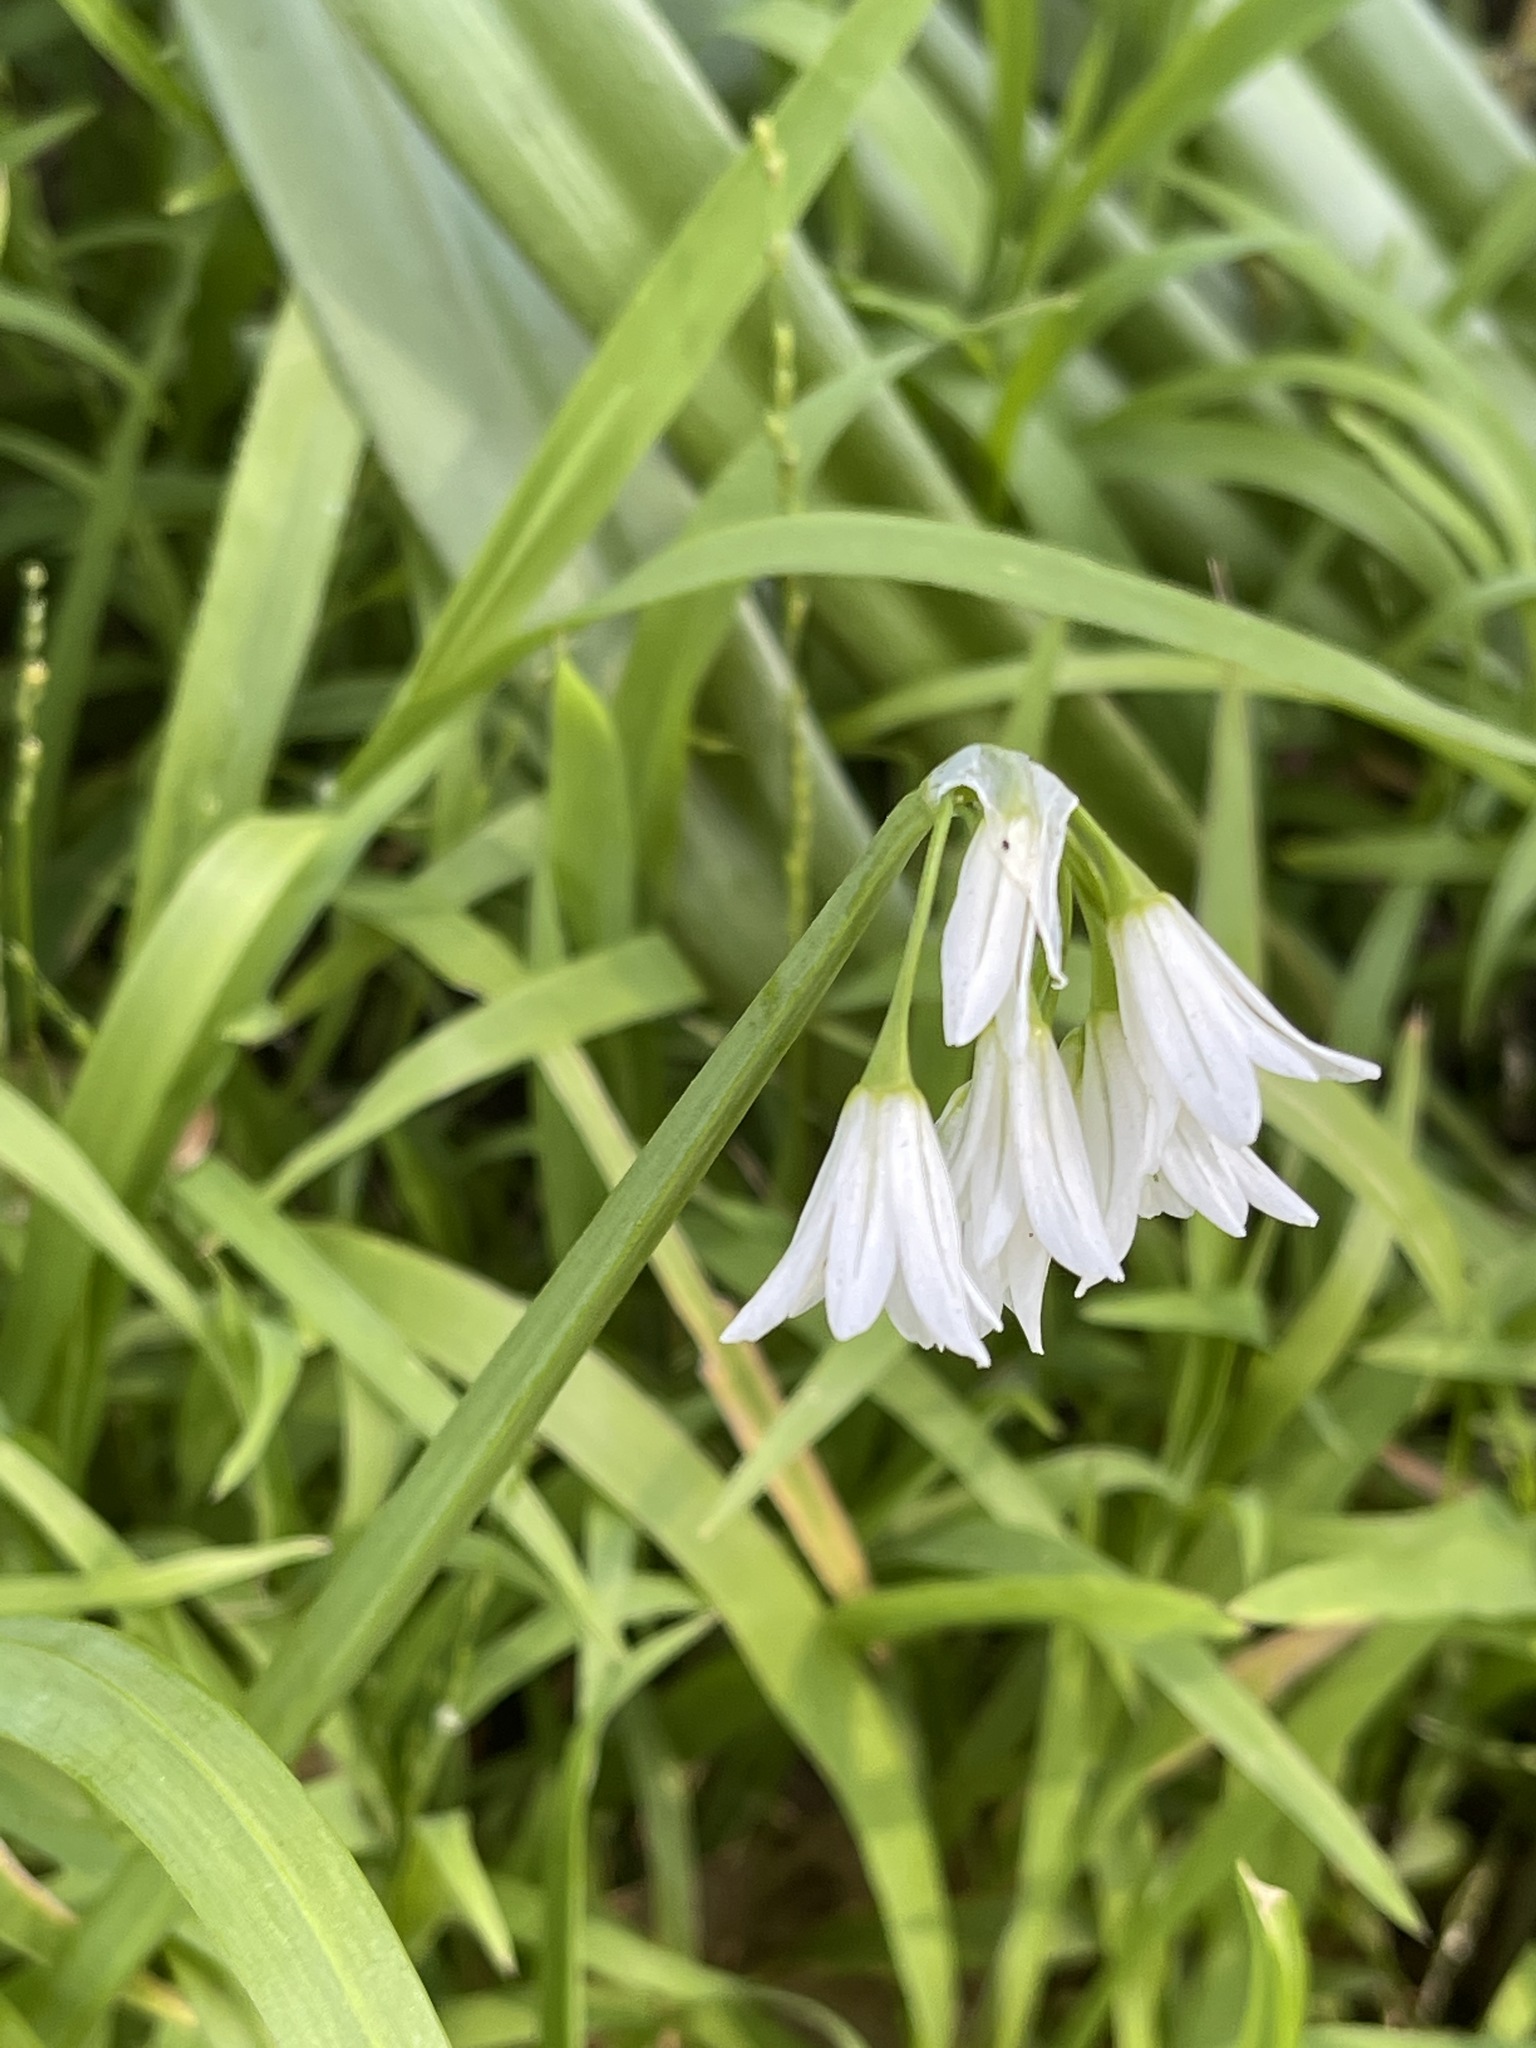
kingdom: Plantae
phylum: Tracheophyta
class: Liliopsida
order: Asparagales
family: Amaryllidaceae
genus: Allium
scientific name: Allium triquetrum
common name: Three-cornered garlic
